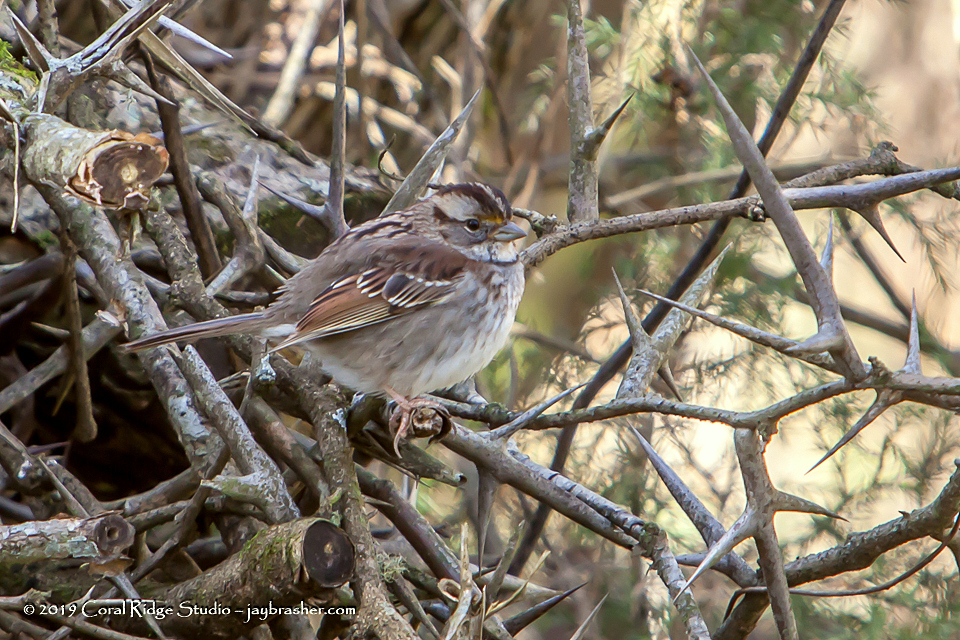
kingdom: Animalia
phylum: Chordata
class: Aves
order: Passeriformes
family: Passerellidae
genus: Zonotrichia
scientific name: Zonotrichia albicollis
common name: White-throated sparrow
